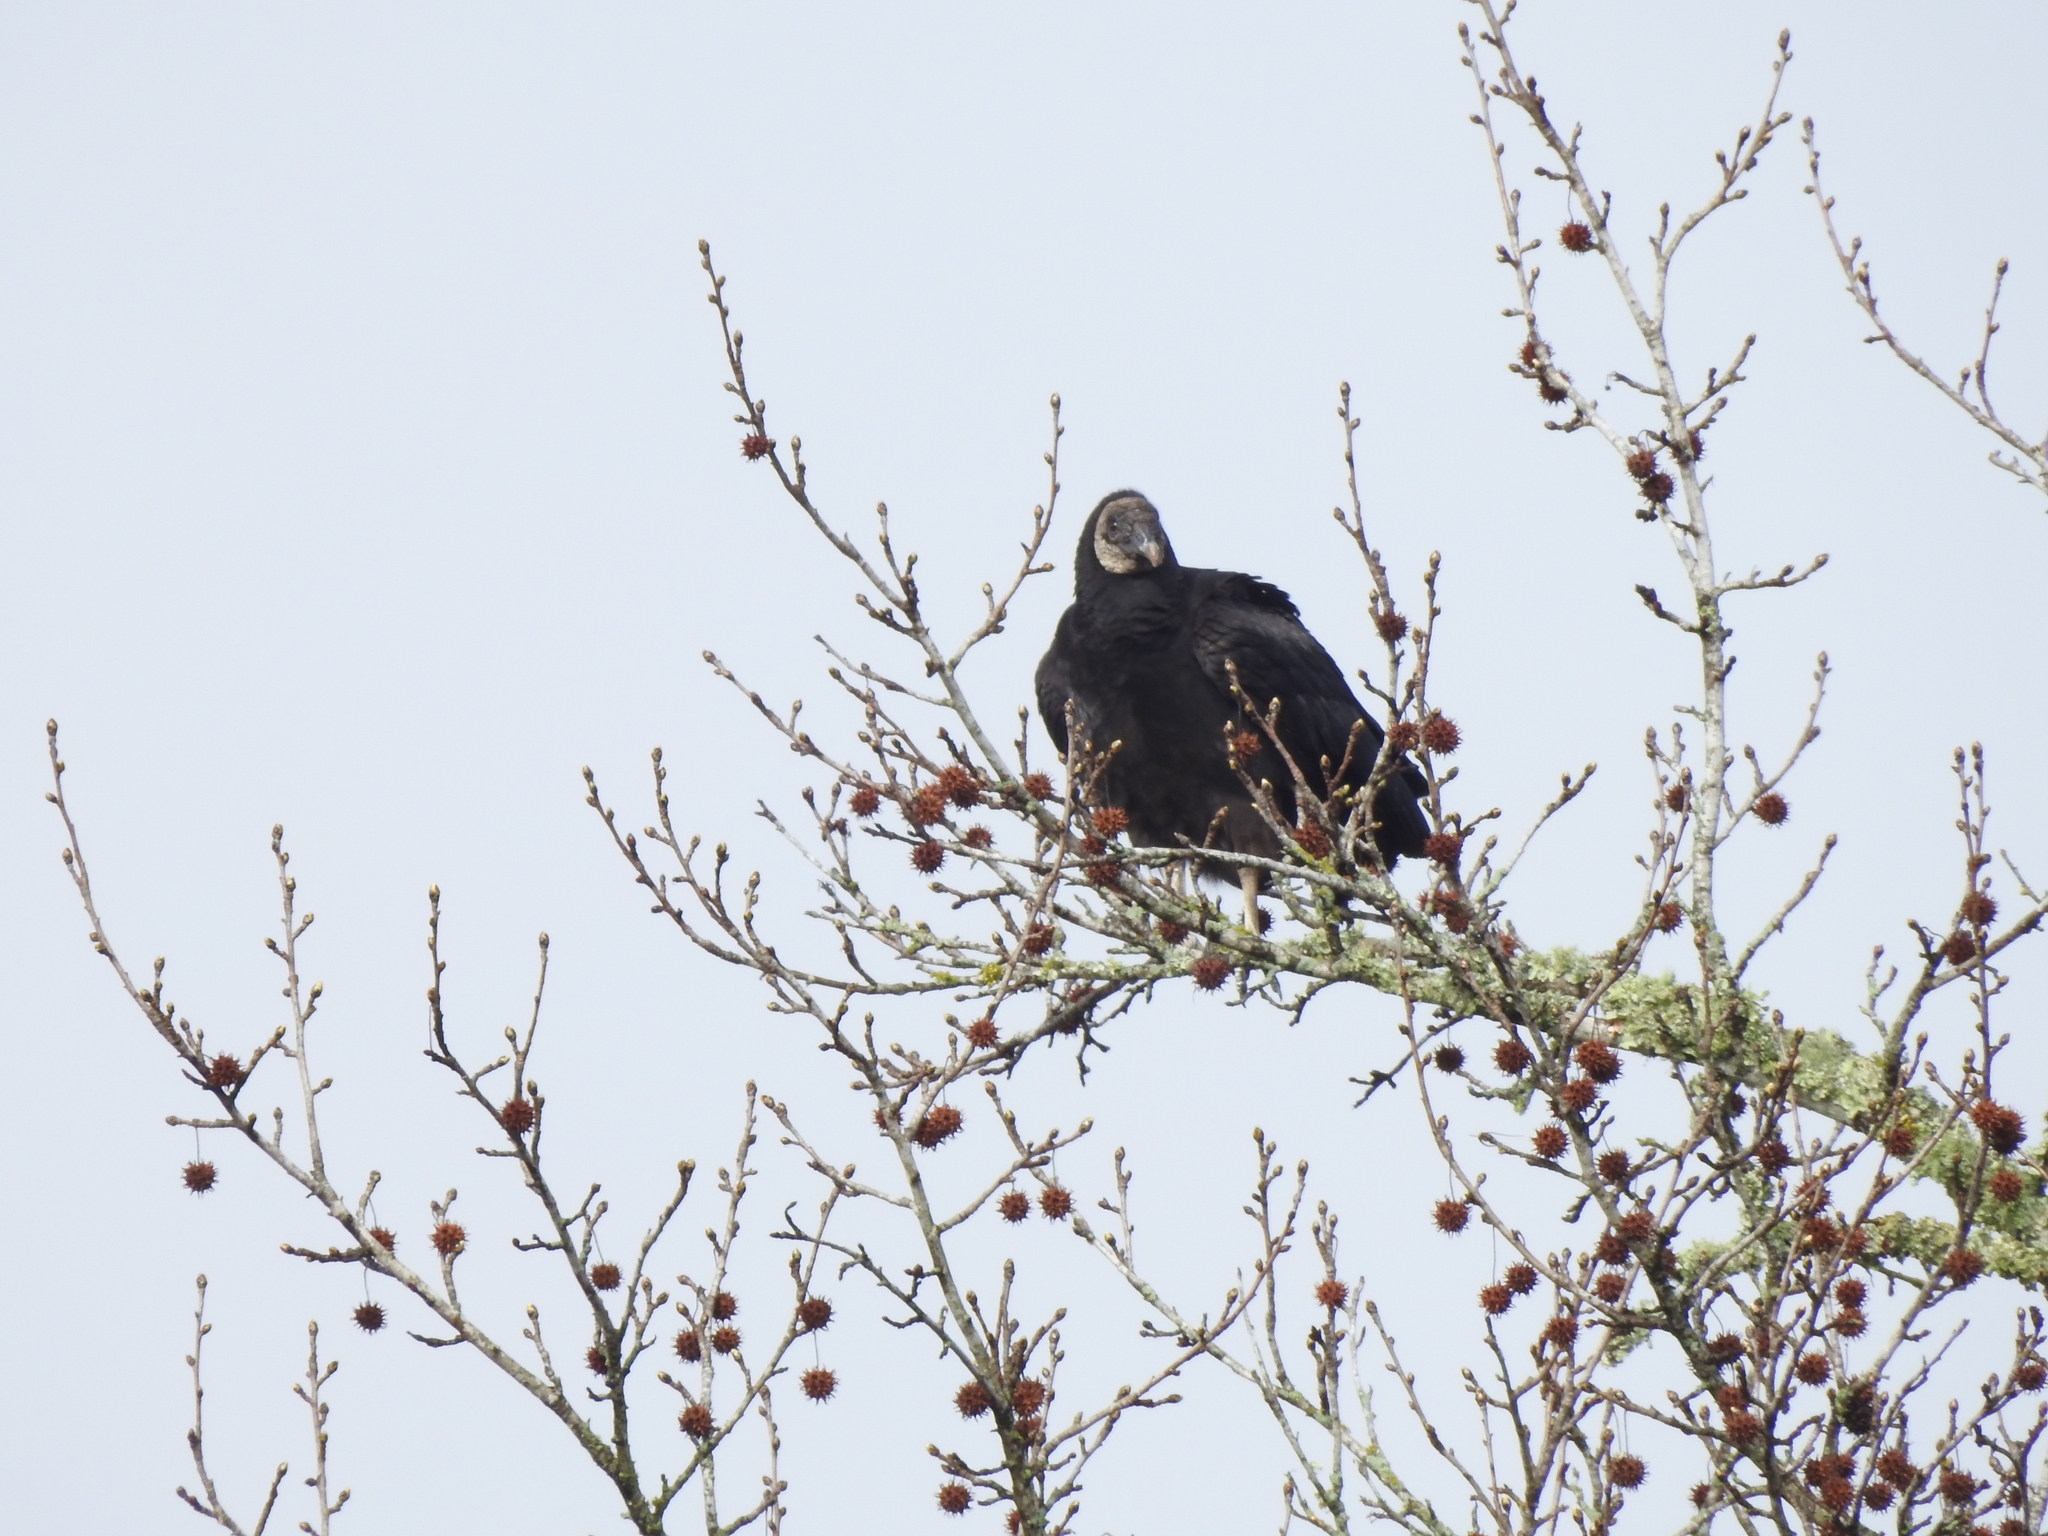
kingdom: Animalia
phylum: Chordata
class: Aves
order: Accipitriformes
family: Cathartidae
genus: Coragyps
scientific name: Coragyps atratus
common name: Black vulture
